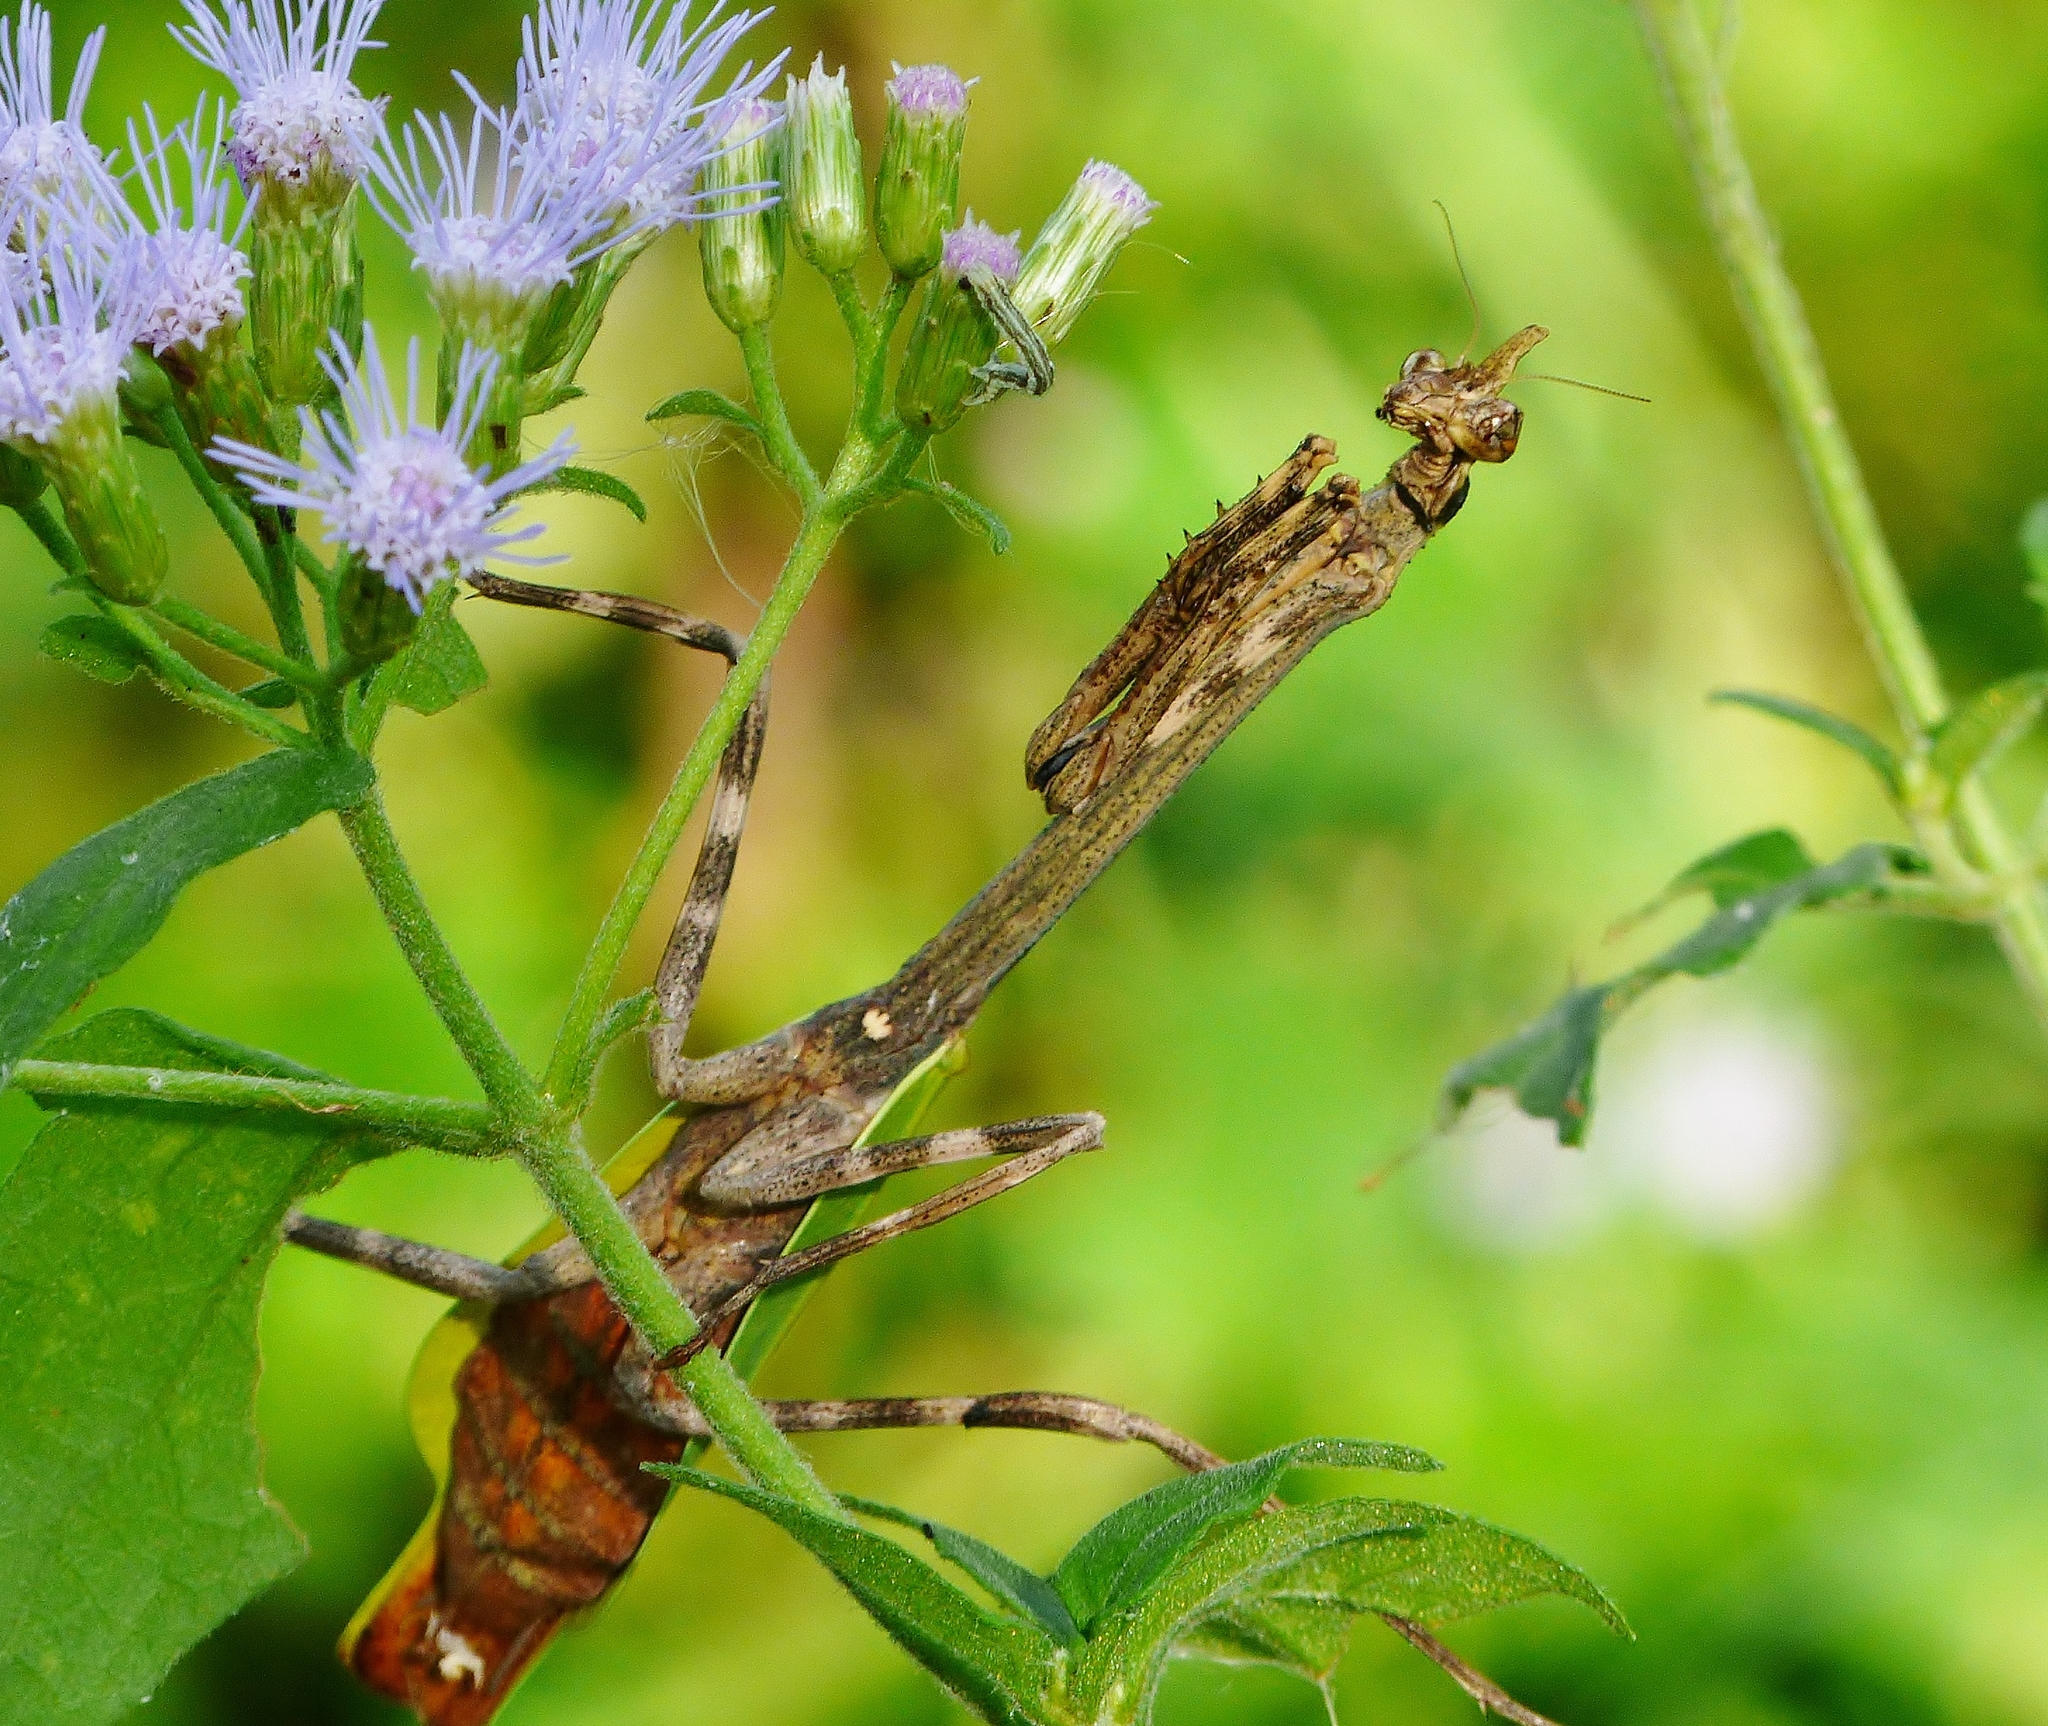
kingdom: Animalia
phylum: Arthropoda
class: Insecta
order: Mantodea
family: Mantidae
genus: Pseudovates
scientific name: Pseudovates chlorophaea
